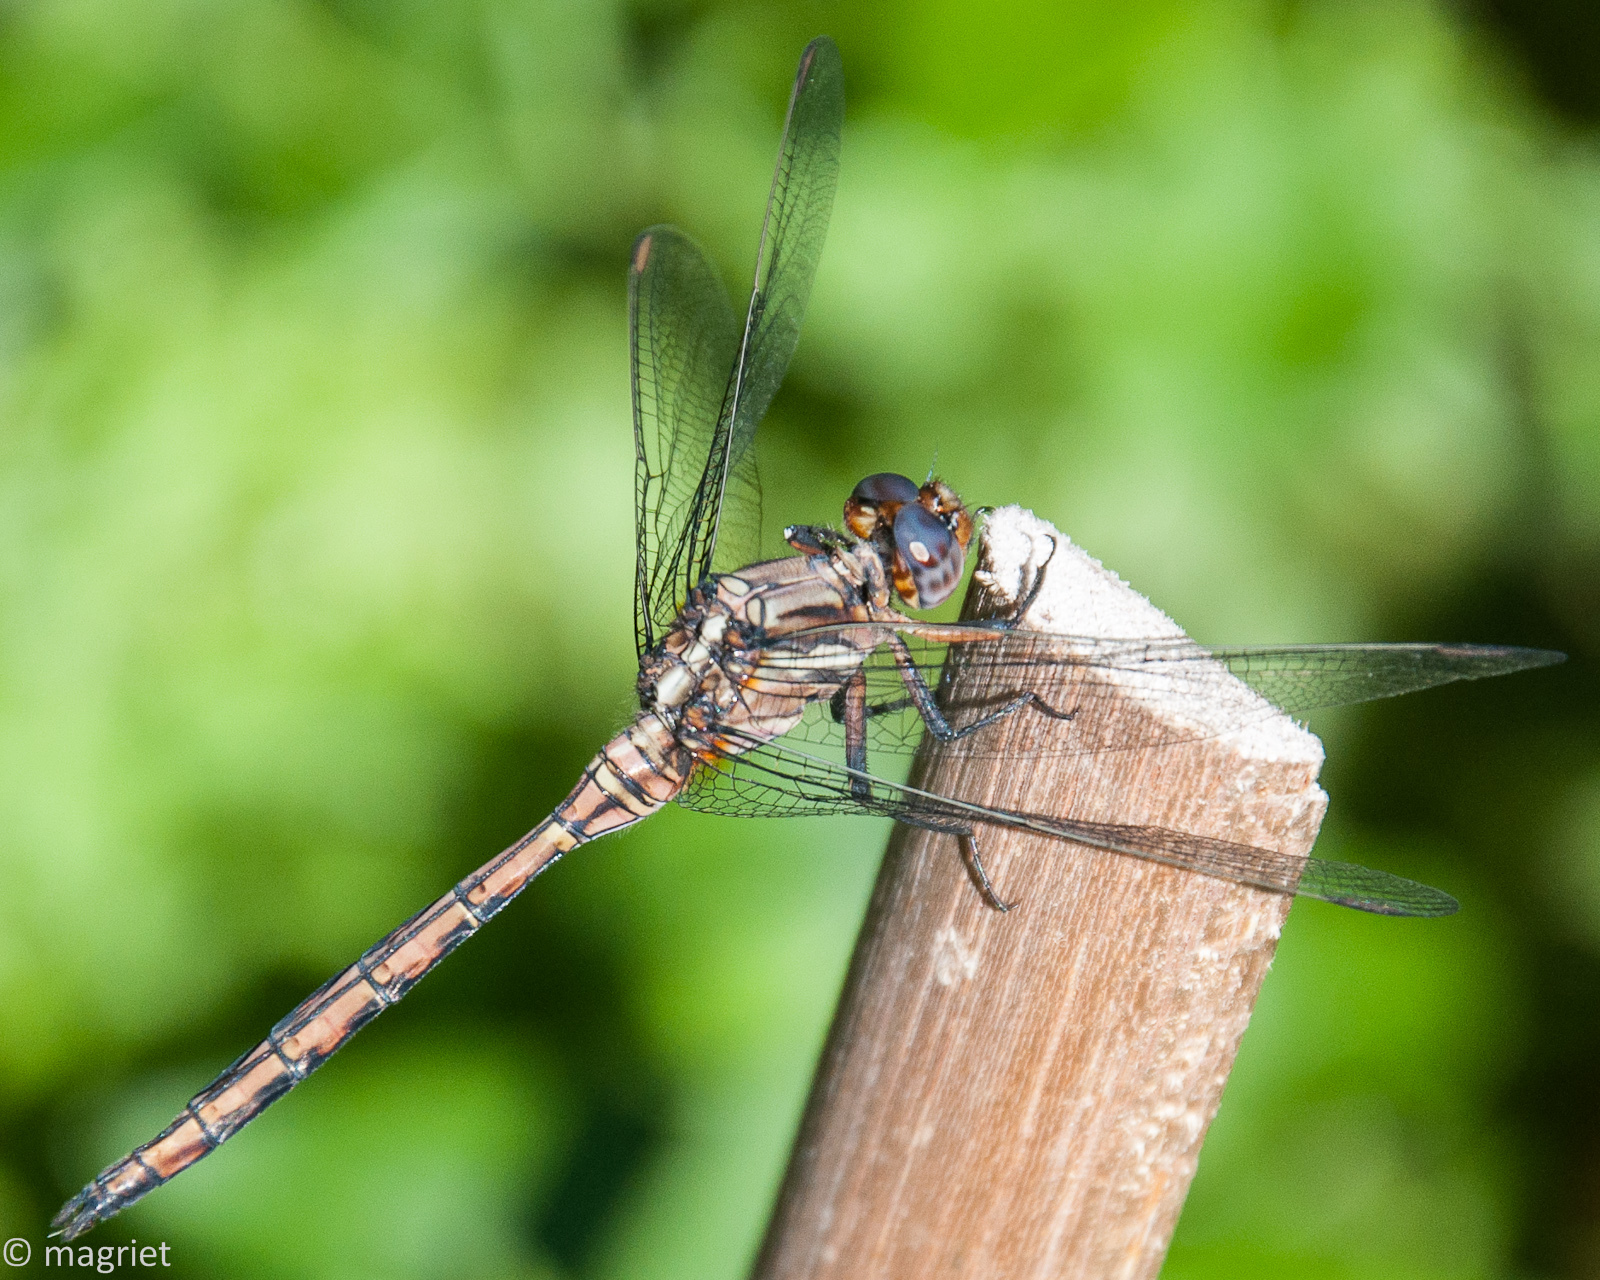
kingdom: Animalia
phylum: Arthropoda
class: Insecta
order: Odonata
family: Libellulidae
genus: Orthetrum
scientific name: Orthetrum julia
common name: Julia skimmer
